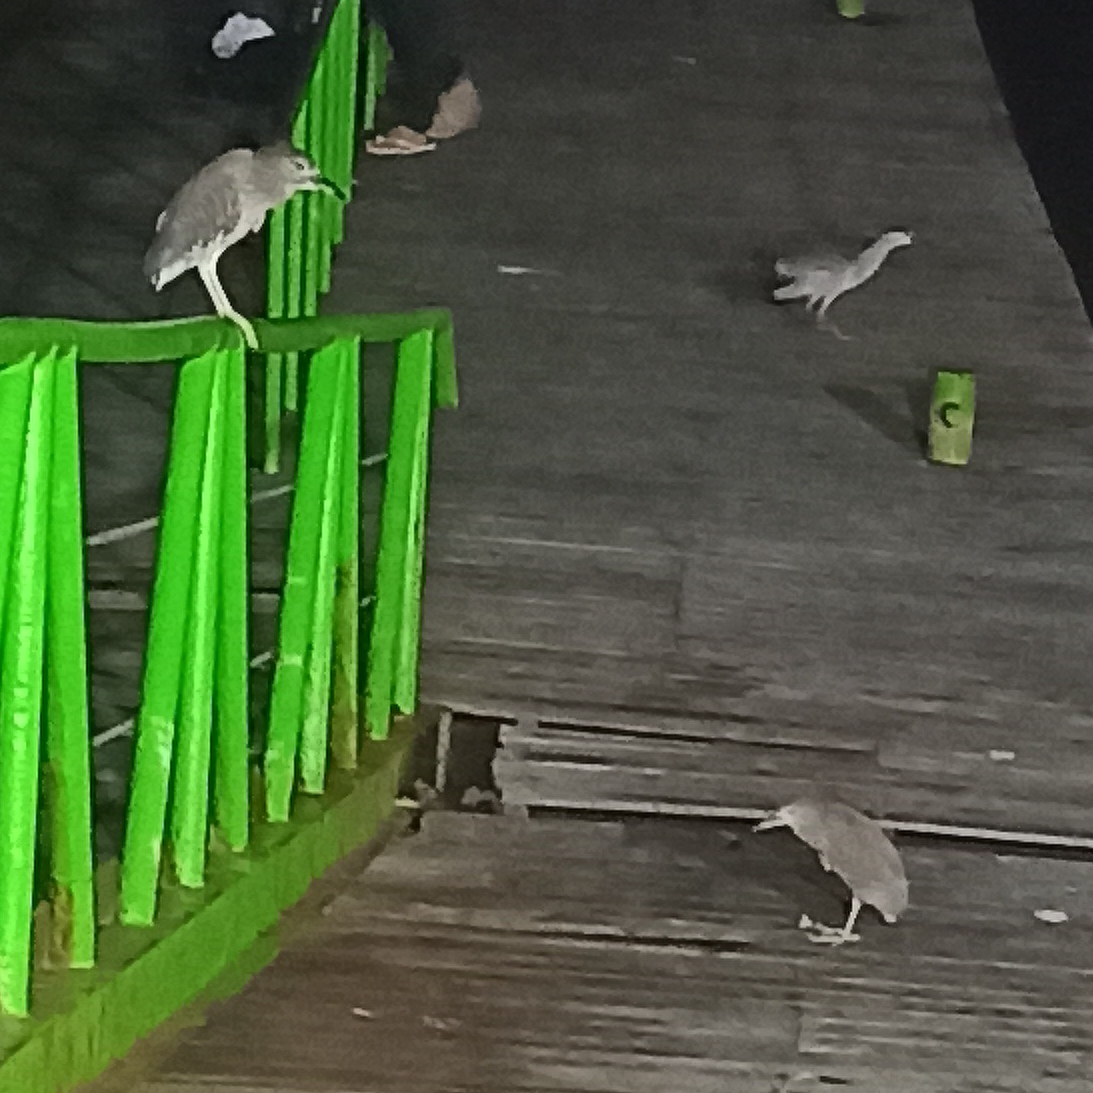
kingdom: Animalia
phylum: Chordata
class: Aves
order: Pelecaniformes
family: Ardeidae
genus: Nycticorax
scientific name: Nycticorax nycticorax
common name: Black-crowned night heron
